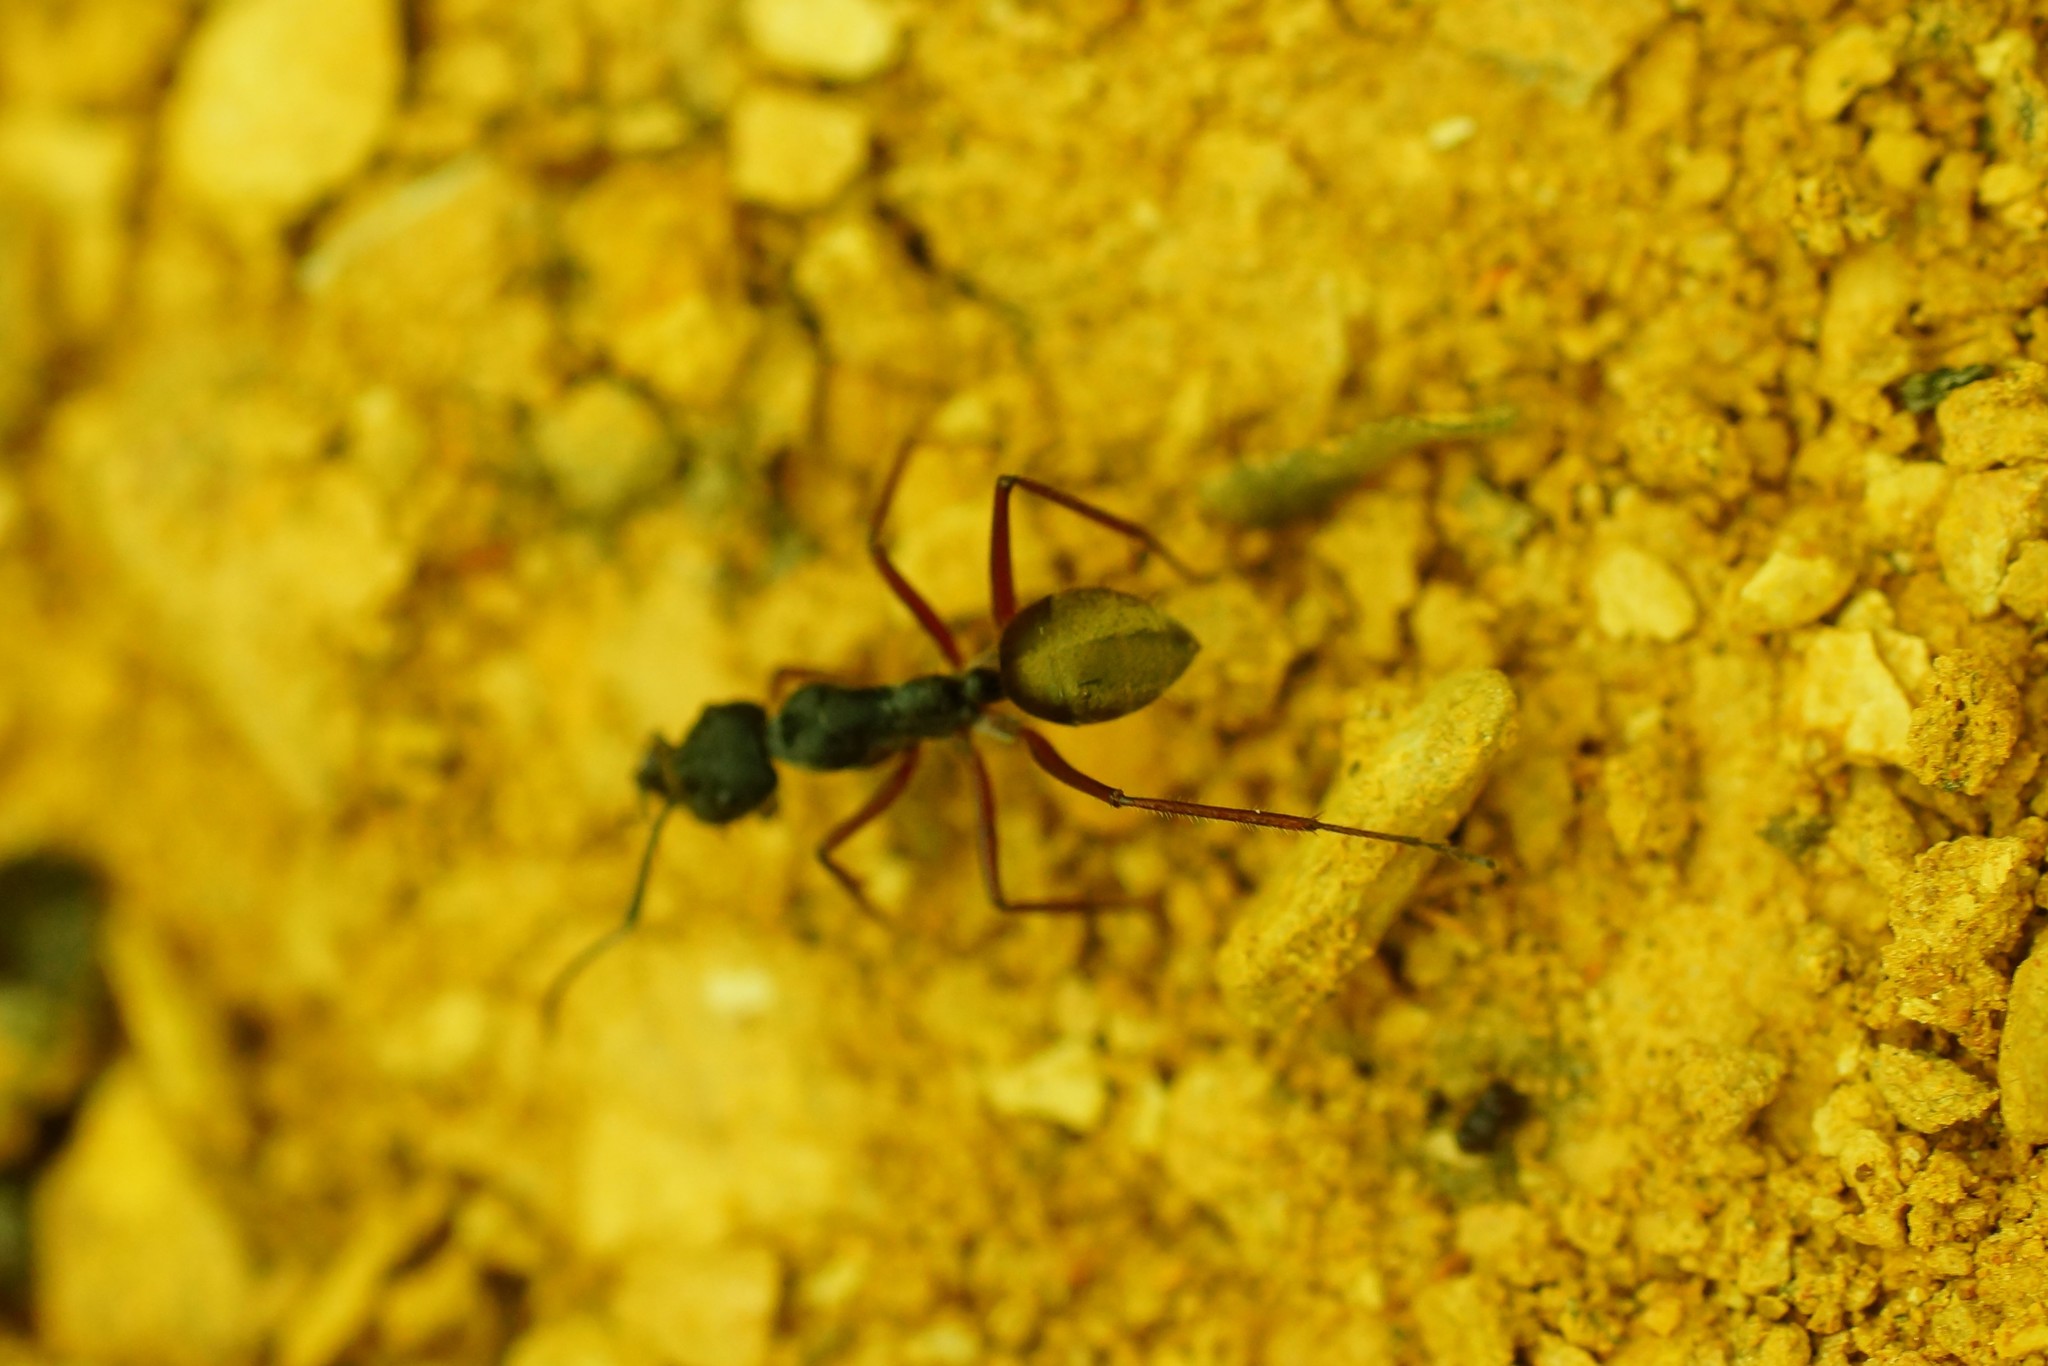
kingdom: Animalia
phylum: Arthropoda
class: Insecta
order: Hymenoptera
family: Formicidae
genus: Camponotus
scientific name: Camponotus suffusus
